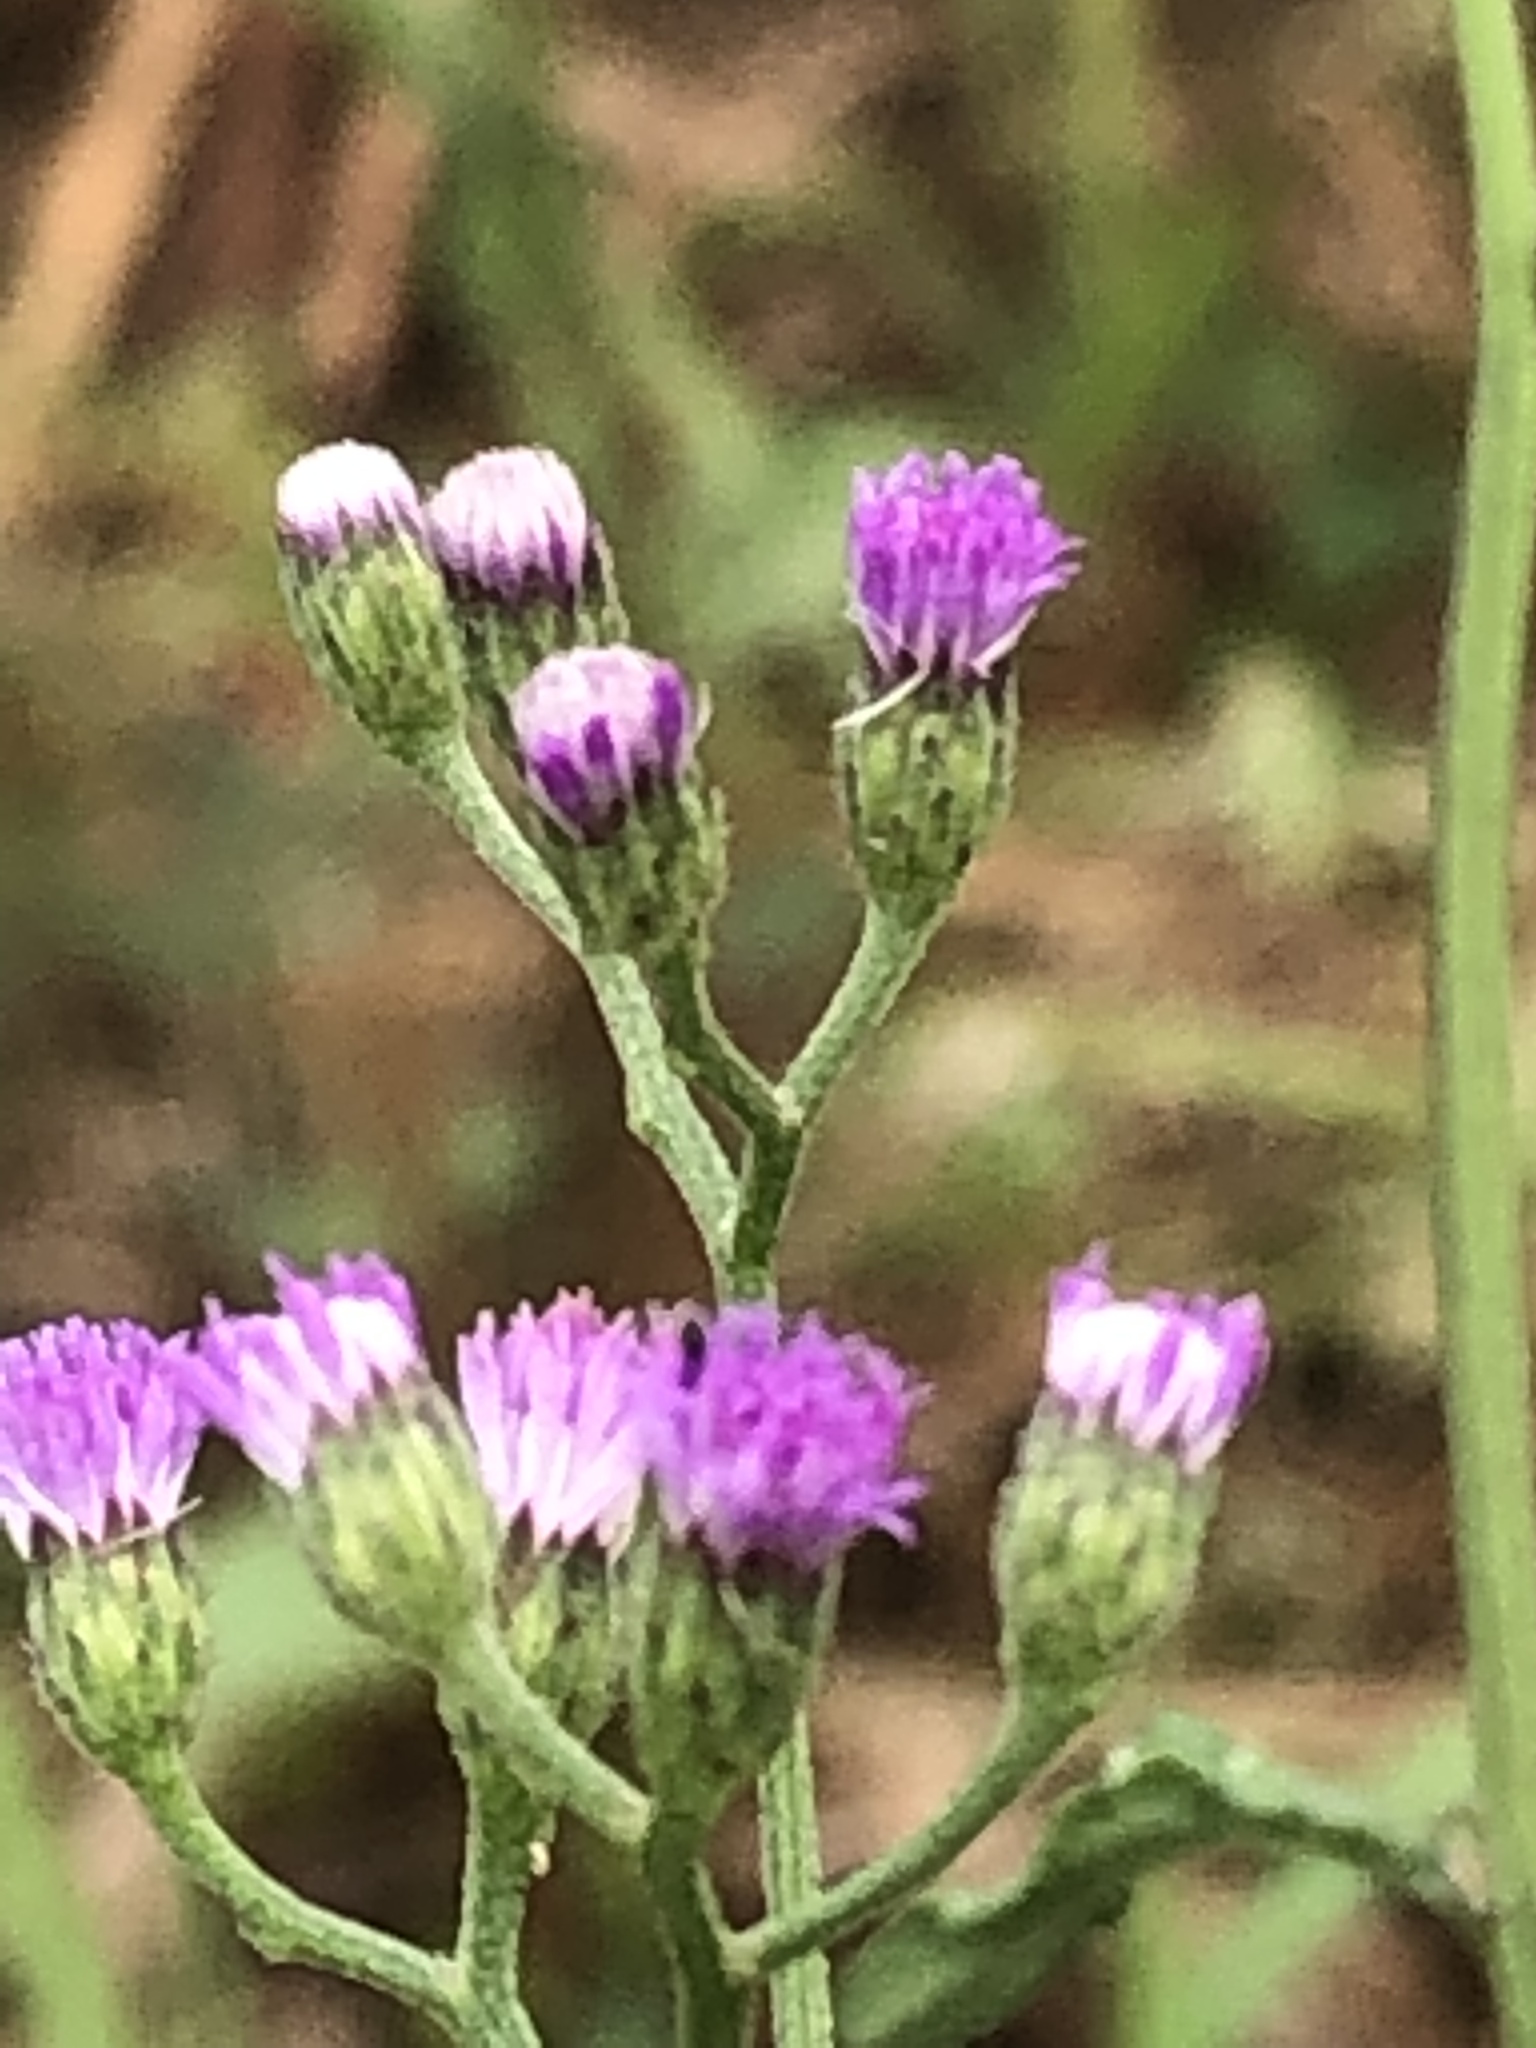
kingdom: Plantae
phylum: Tracheophyta
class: Magnoliopsida
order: Asterales
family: Asteraceae
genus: Cyanthillium
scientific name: Cyanthillium cinereum
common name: Little ironweed
